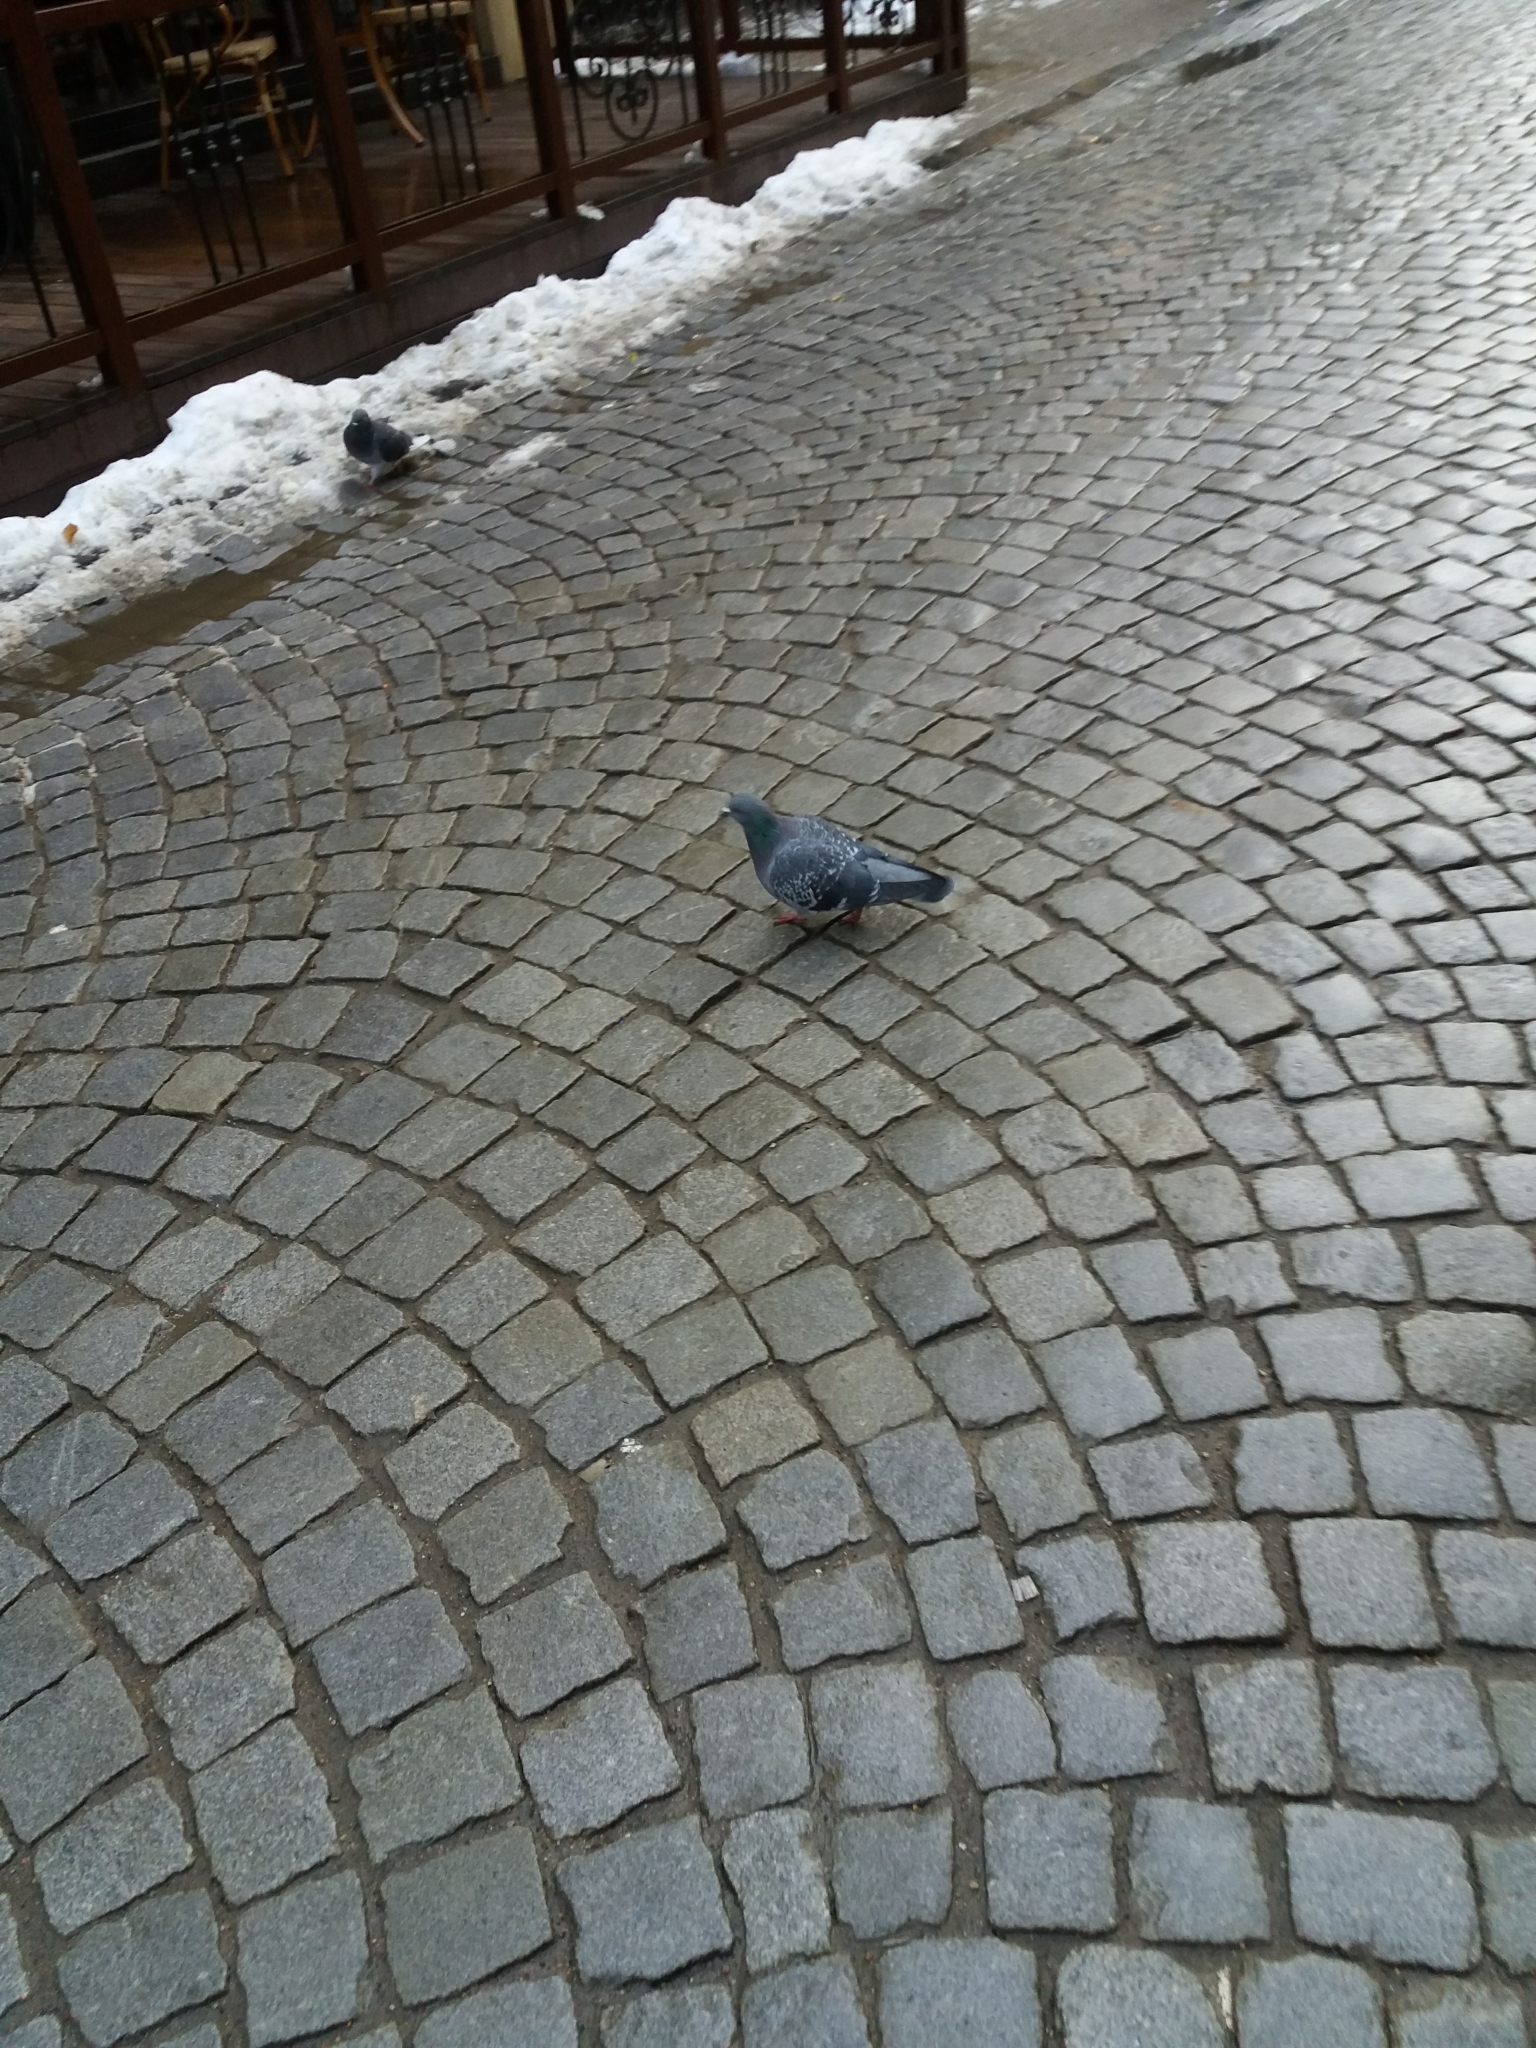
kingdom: Animalia
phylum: Chordata
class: Aves
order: Columbiformes
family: Columbidae
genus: Columba
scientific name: Columba livia
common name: Rock pigeon
